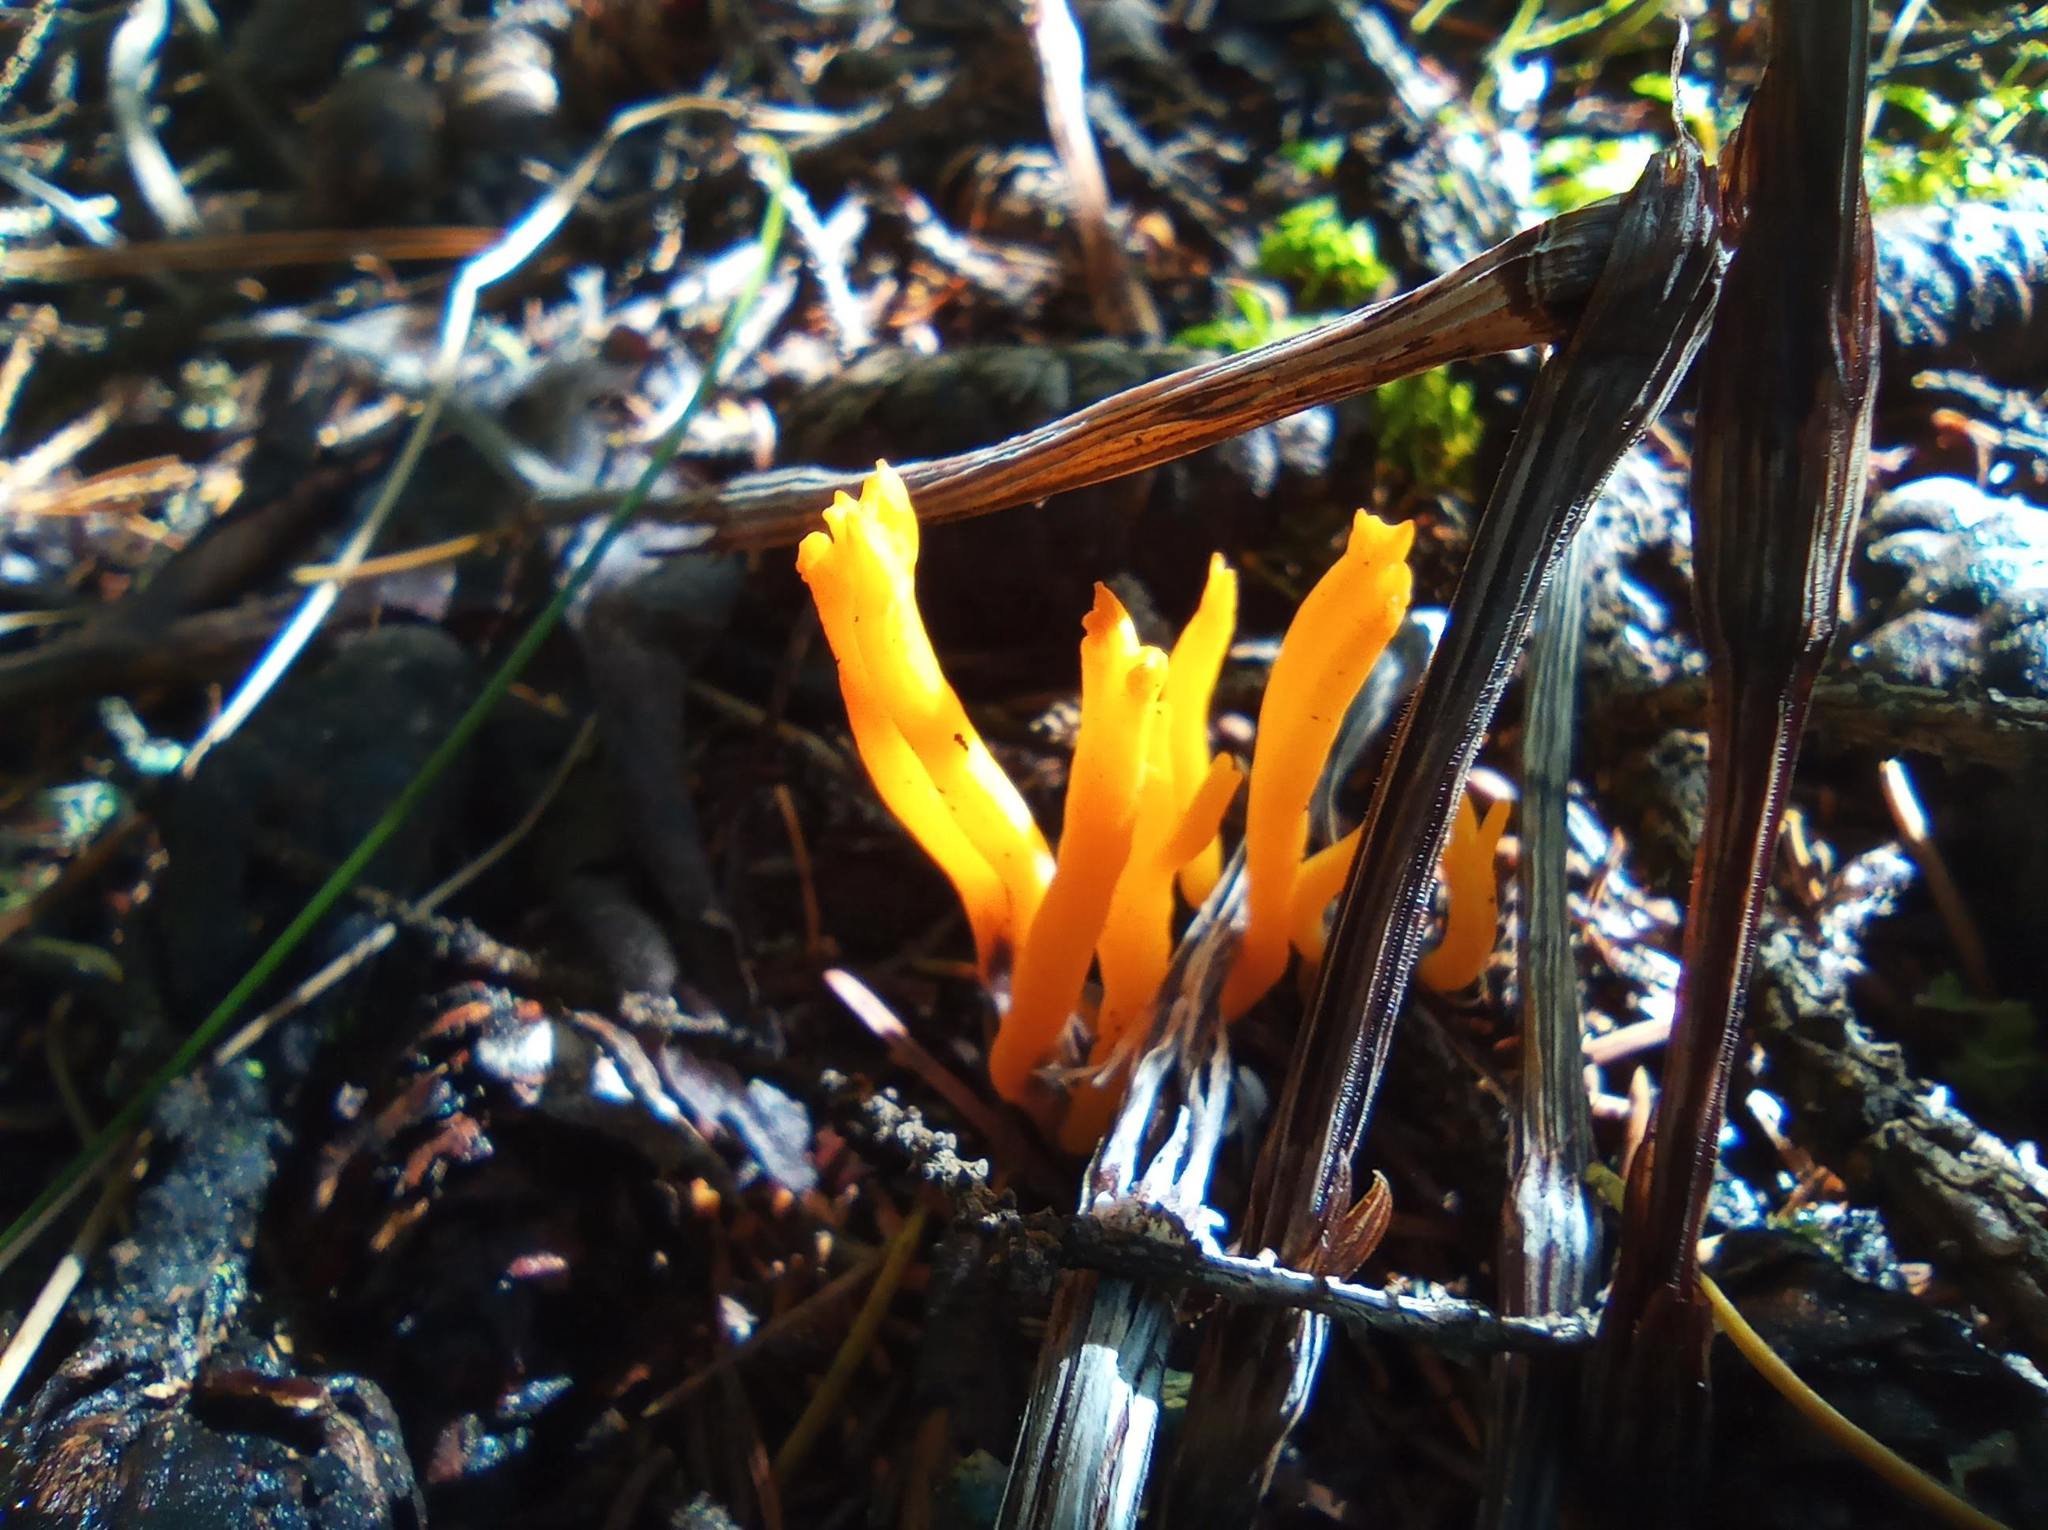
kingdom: Fungi
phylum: Basidiomycota
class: Dacrymycetes
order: Dacrymycetales
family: Dacrymycetaceae
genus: Calocera
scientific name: Calocera viscosa
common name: Yellow stagshorn
